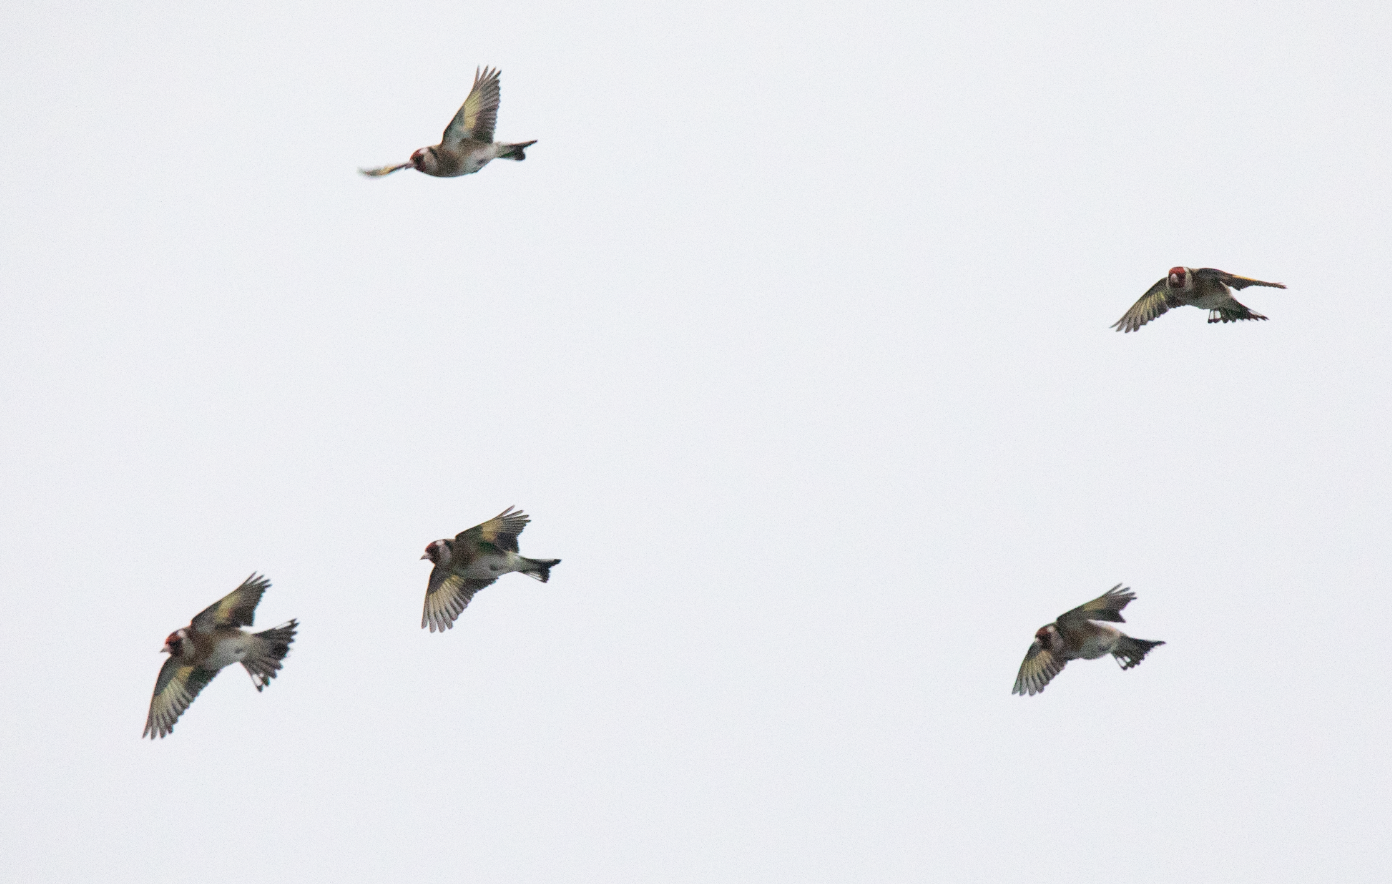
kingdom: Animalia
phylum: Chordata
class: Aves
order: Passeriformes
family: Fringillidae
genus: Carduelis
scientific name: Carduelis carduelis
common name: European goldfinch
